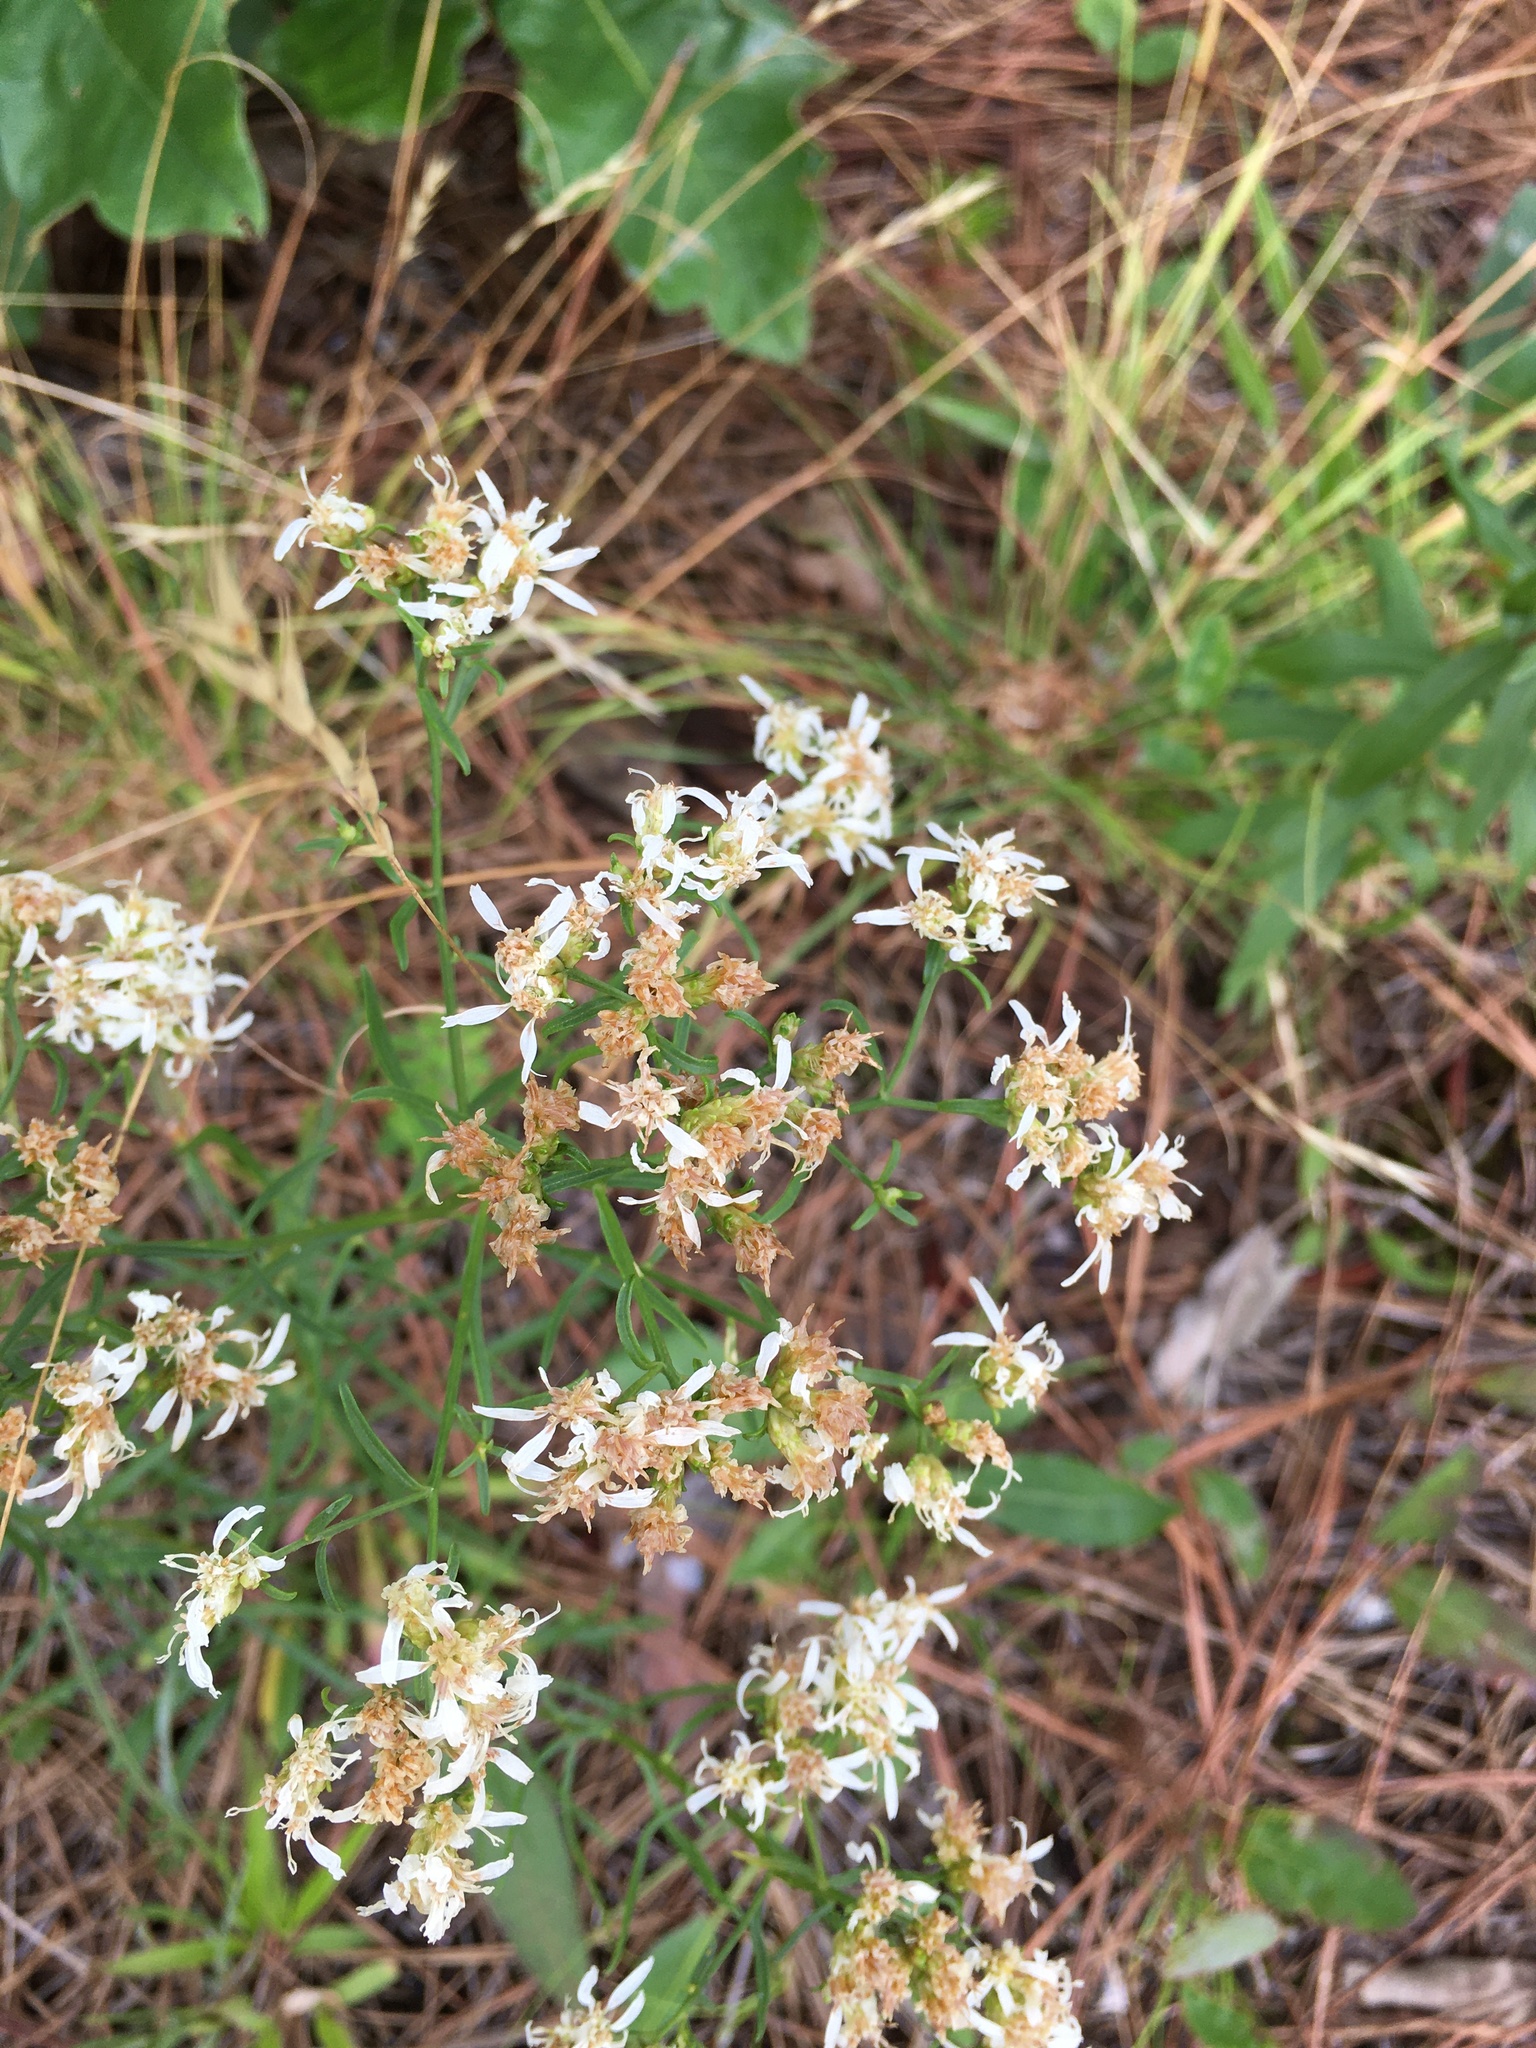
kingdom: Plantae
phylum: Tracheophyta
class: Magnoliopsida
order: Asterales
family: Asteraceae
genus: Sericocarpus
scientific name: Sericocarpus linifolius
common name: Narrow-leaf aster
